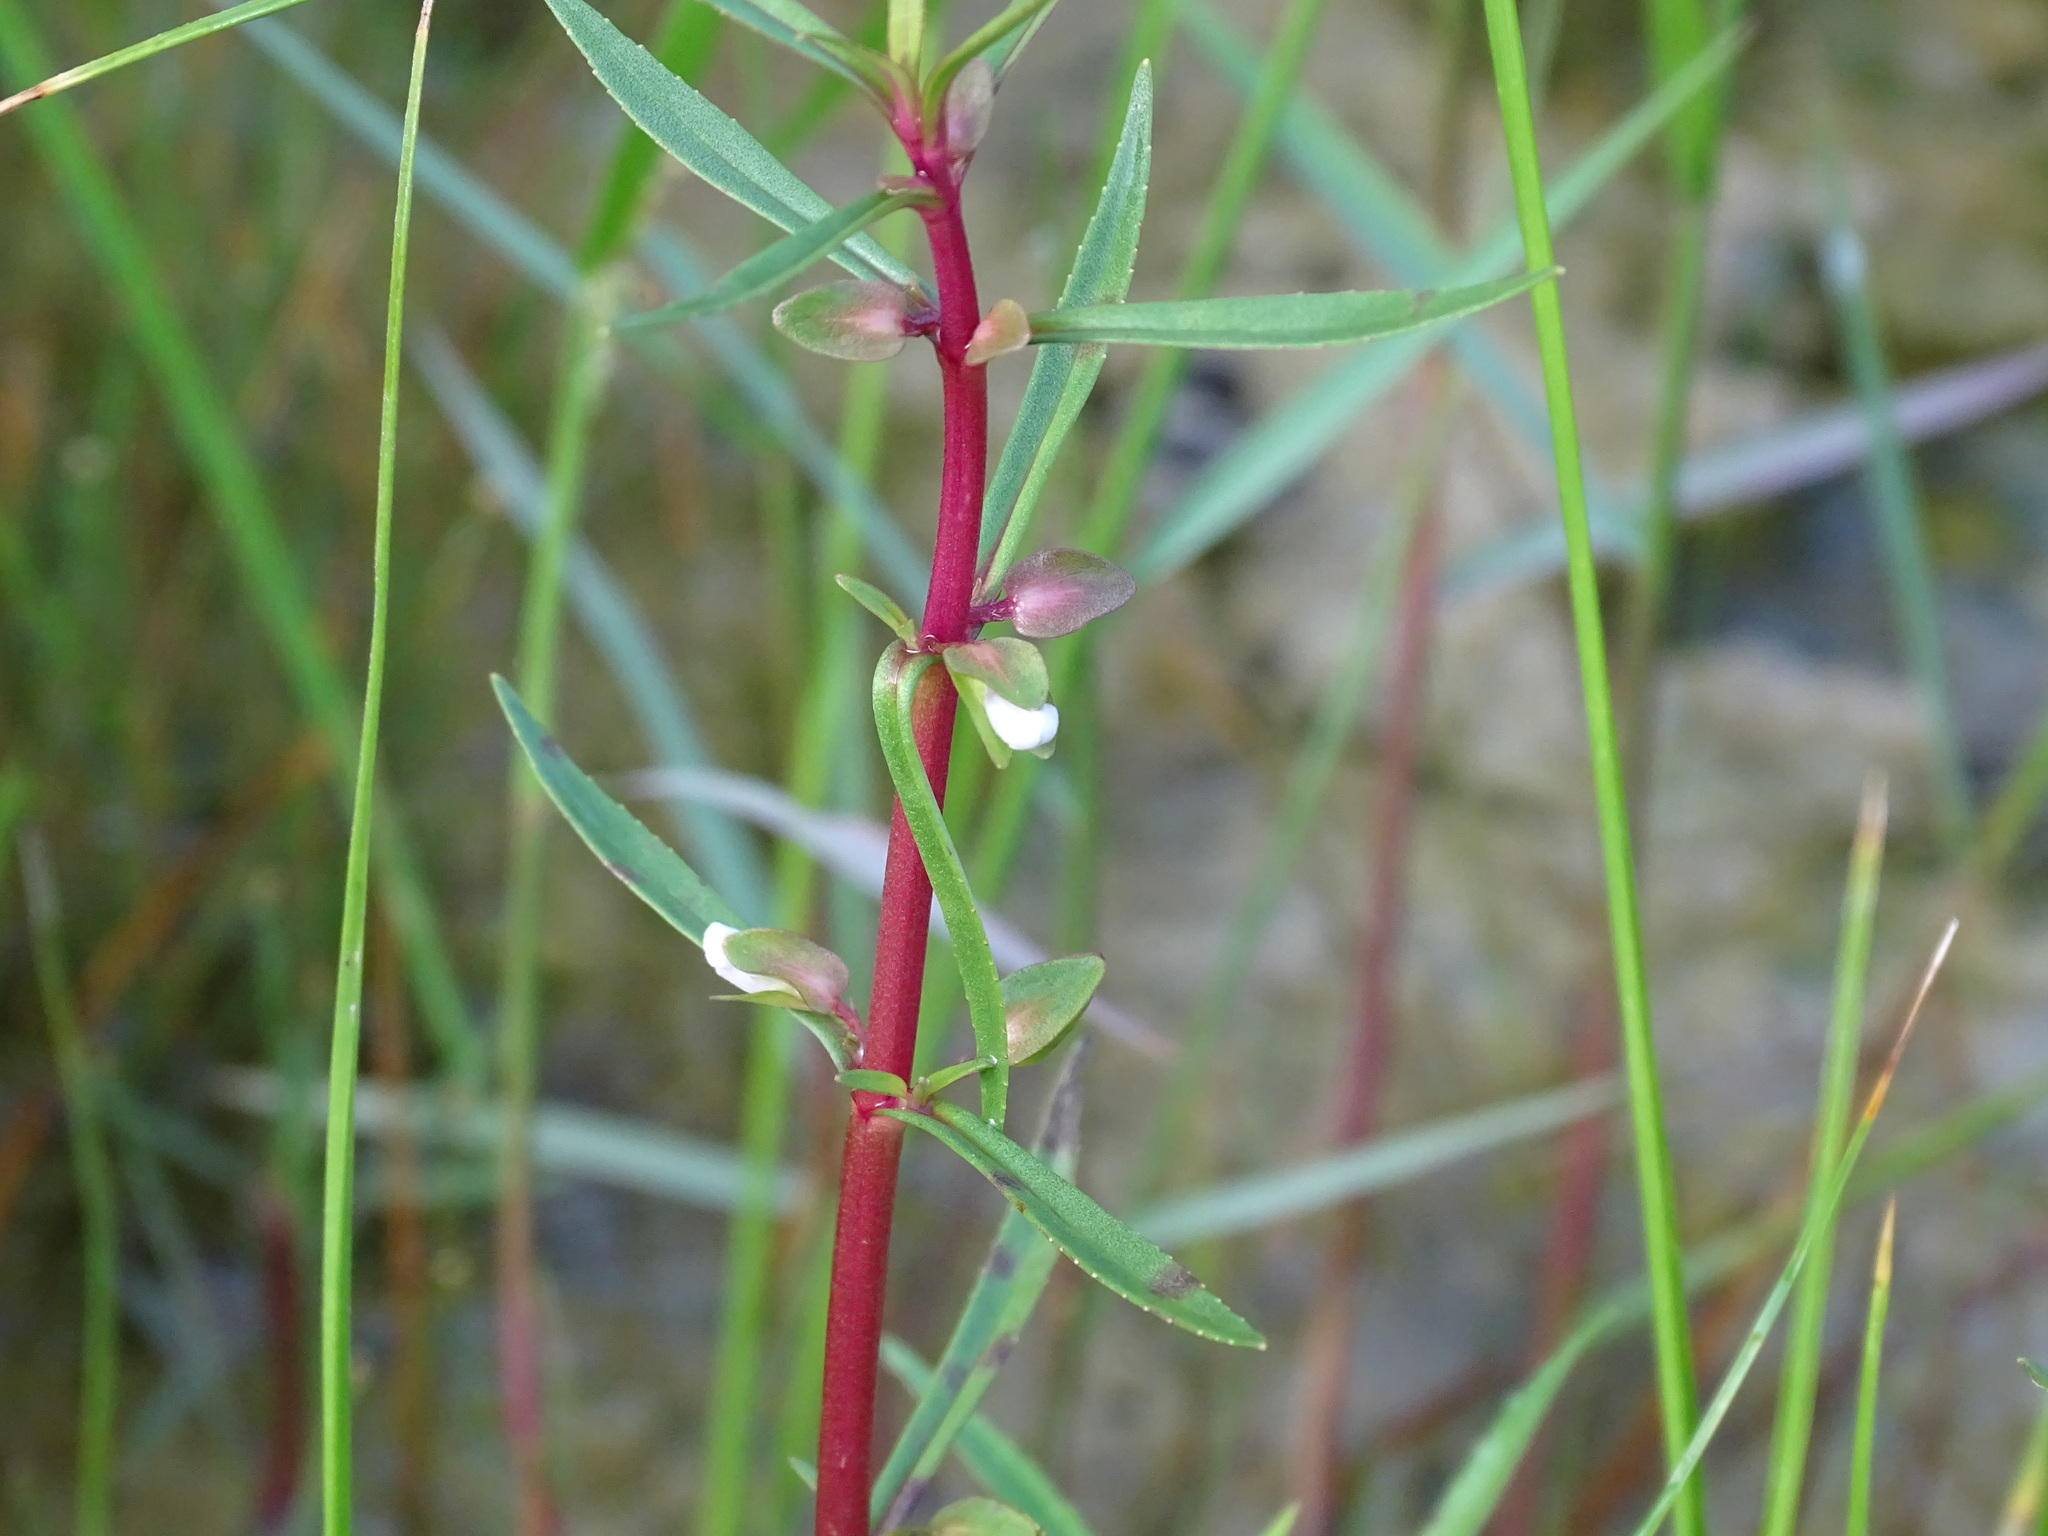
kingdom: Plantae
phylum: Tracheophyta
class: Magnoliopsida
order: Lamiales
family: Plantaginaceae
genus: Bacopa
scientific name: Bacopa lacertosa
